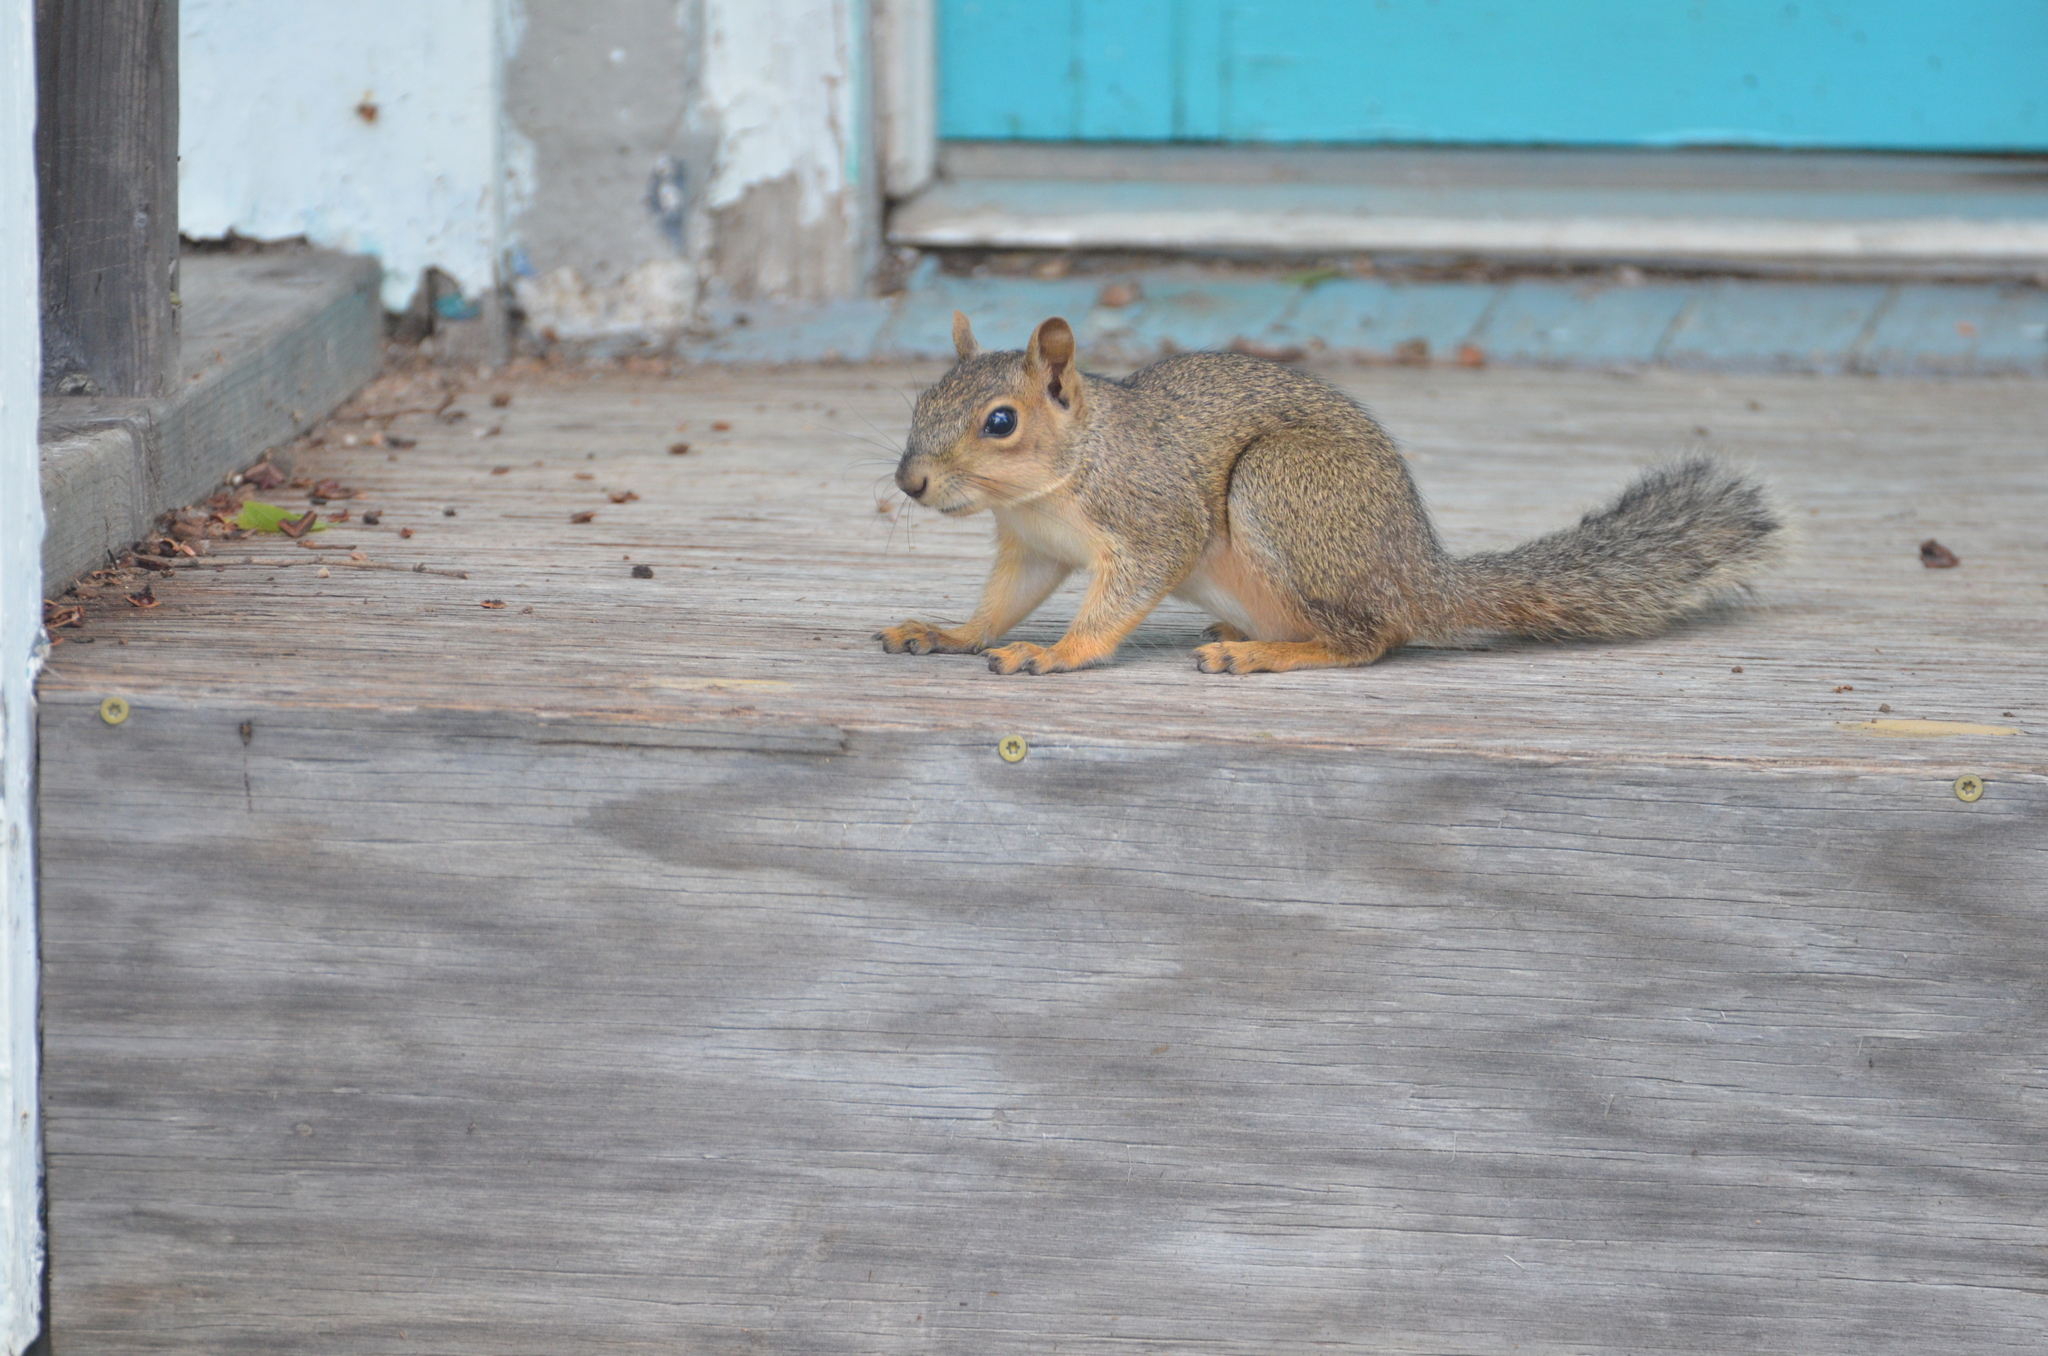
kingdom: Animalia
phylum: Chordata
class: Mammalia
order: Rodentia
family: Sciuridae
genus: Sciurus
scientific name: Sciurus niger
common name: Fox squirrel
